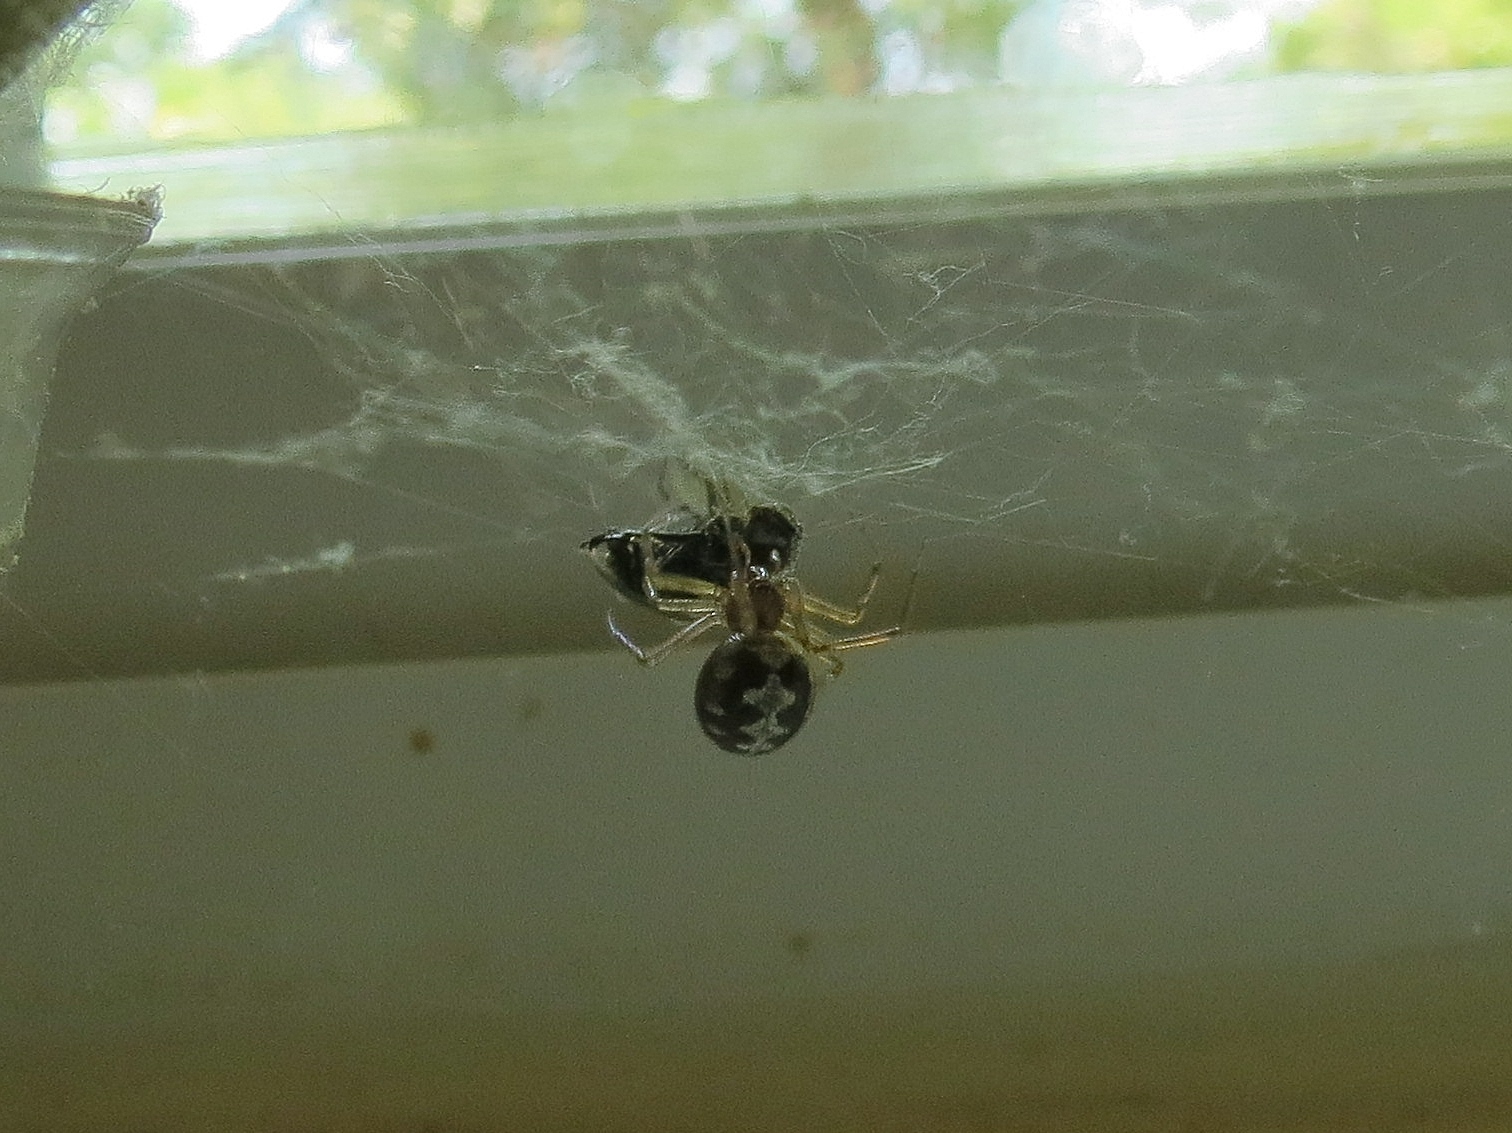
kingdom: Animalia
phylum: Arthropoda
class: Arachnida
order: Araneae
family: Theridiidae
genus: Steatoda
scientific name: Steatoda triangulosa
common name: Triangulate bud spider
